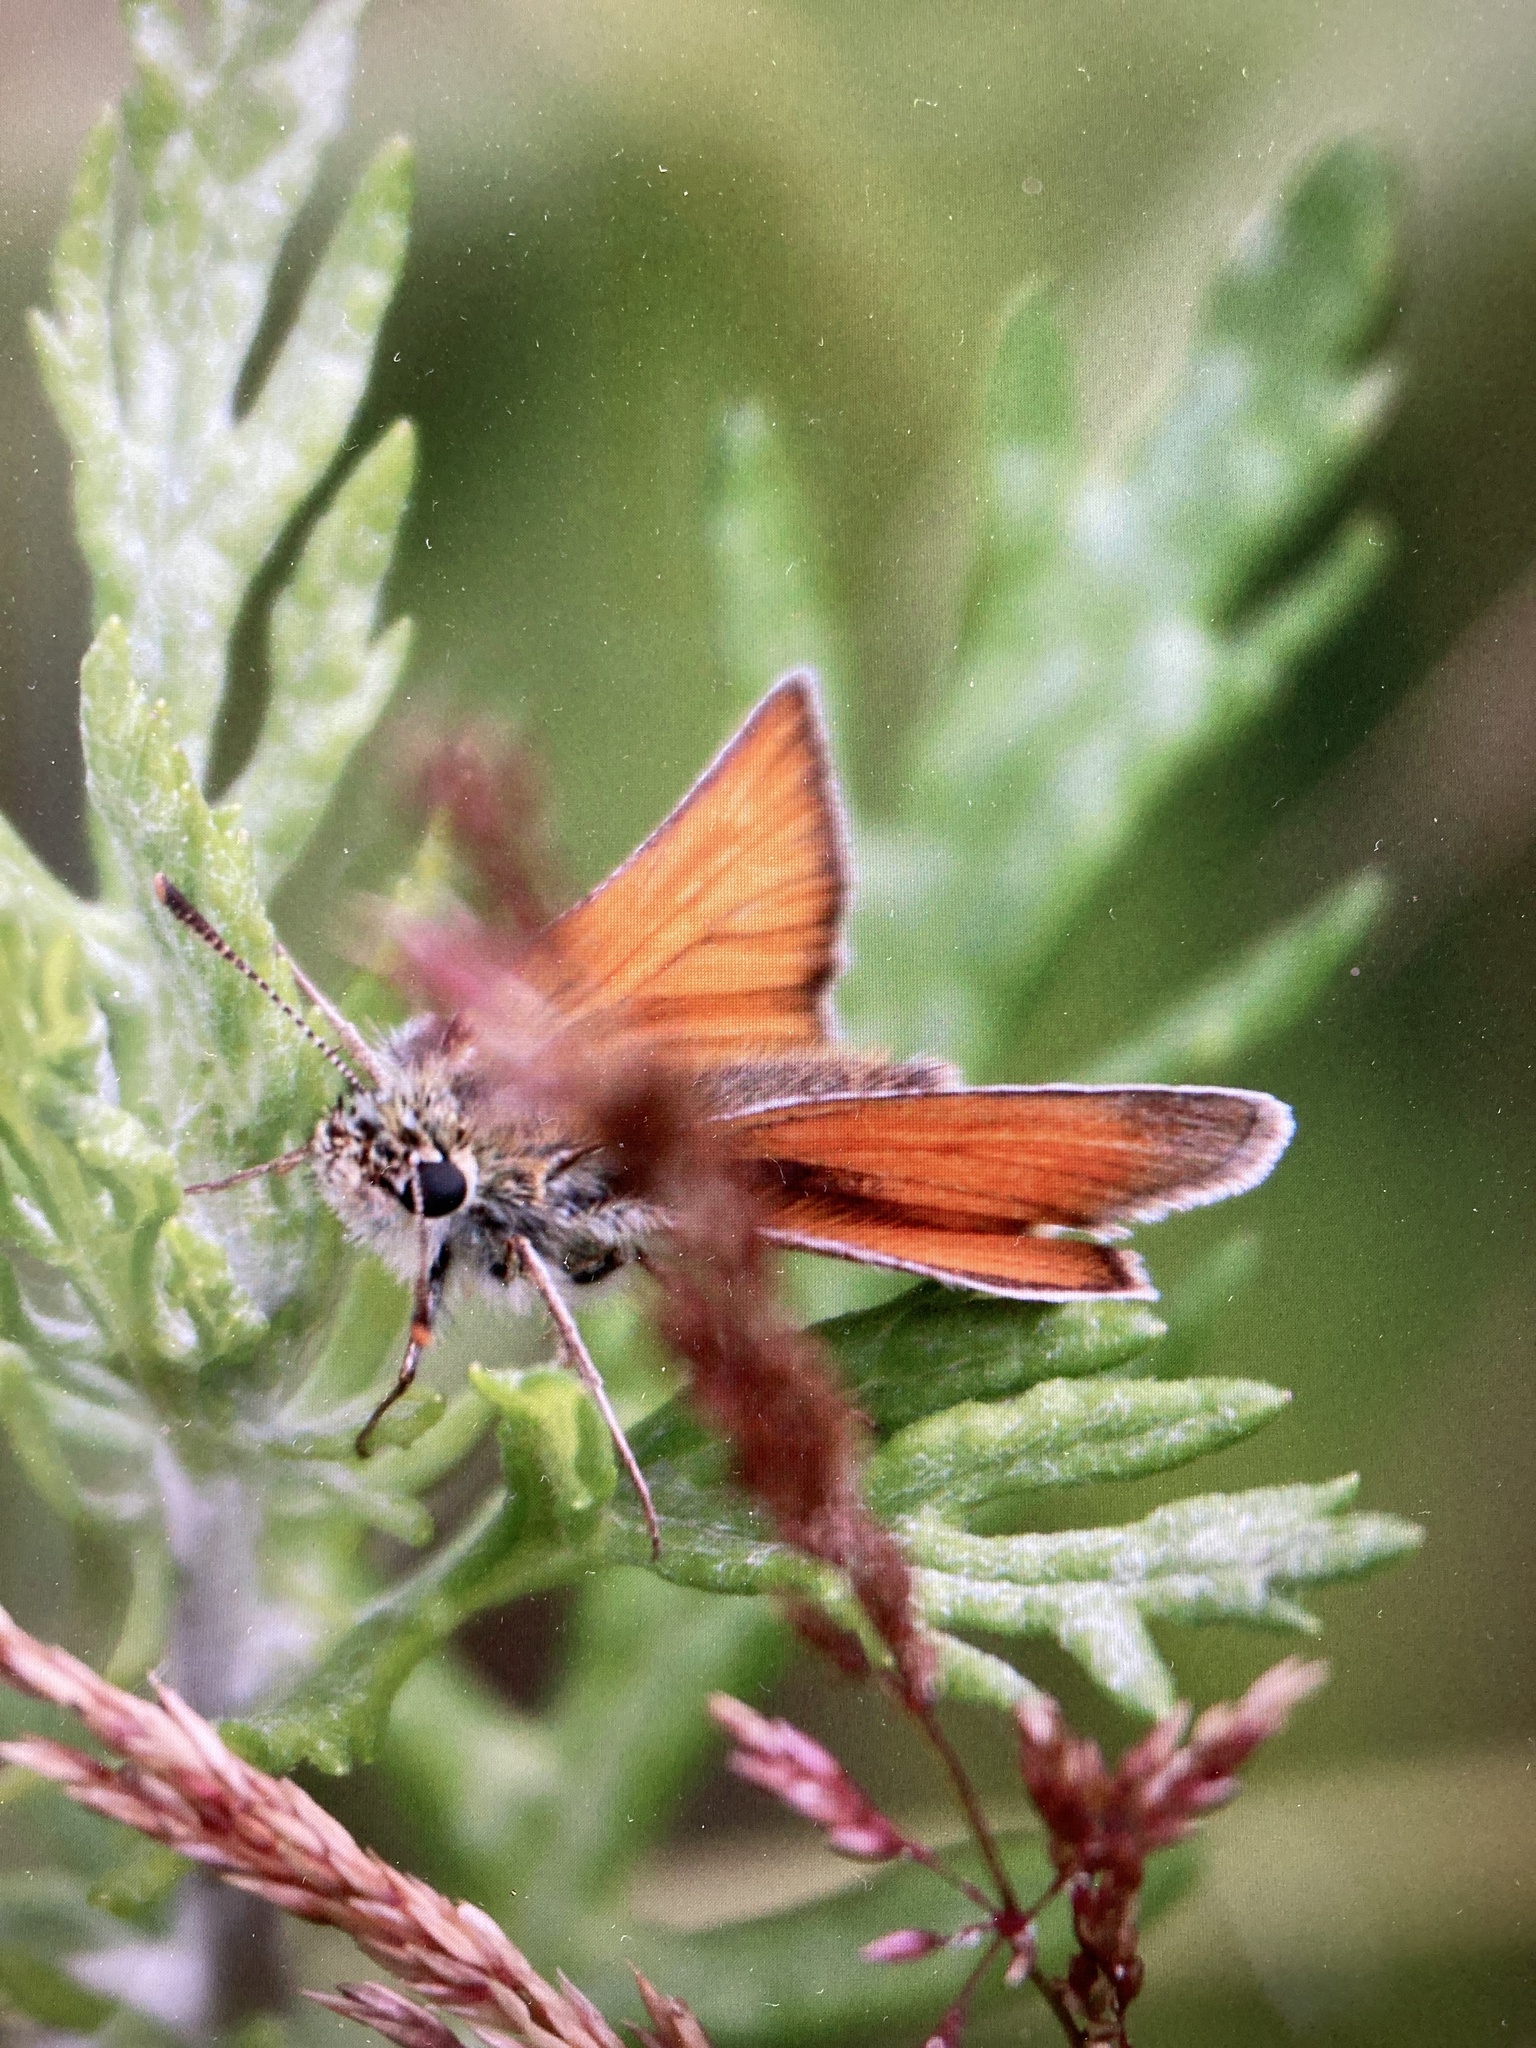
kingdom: Animalia
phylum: Arthropoda
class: Insecta
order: Lepidoptera
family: Hesperiidae
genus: Thymelicus
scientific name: Thymelicus sylvestris
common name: Small skipper
